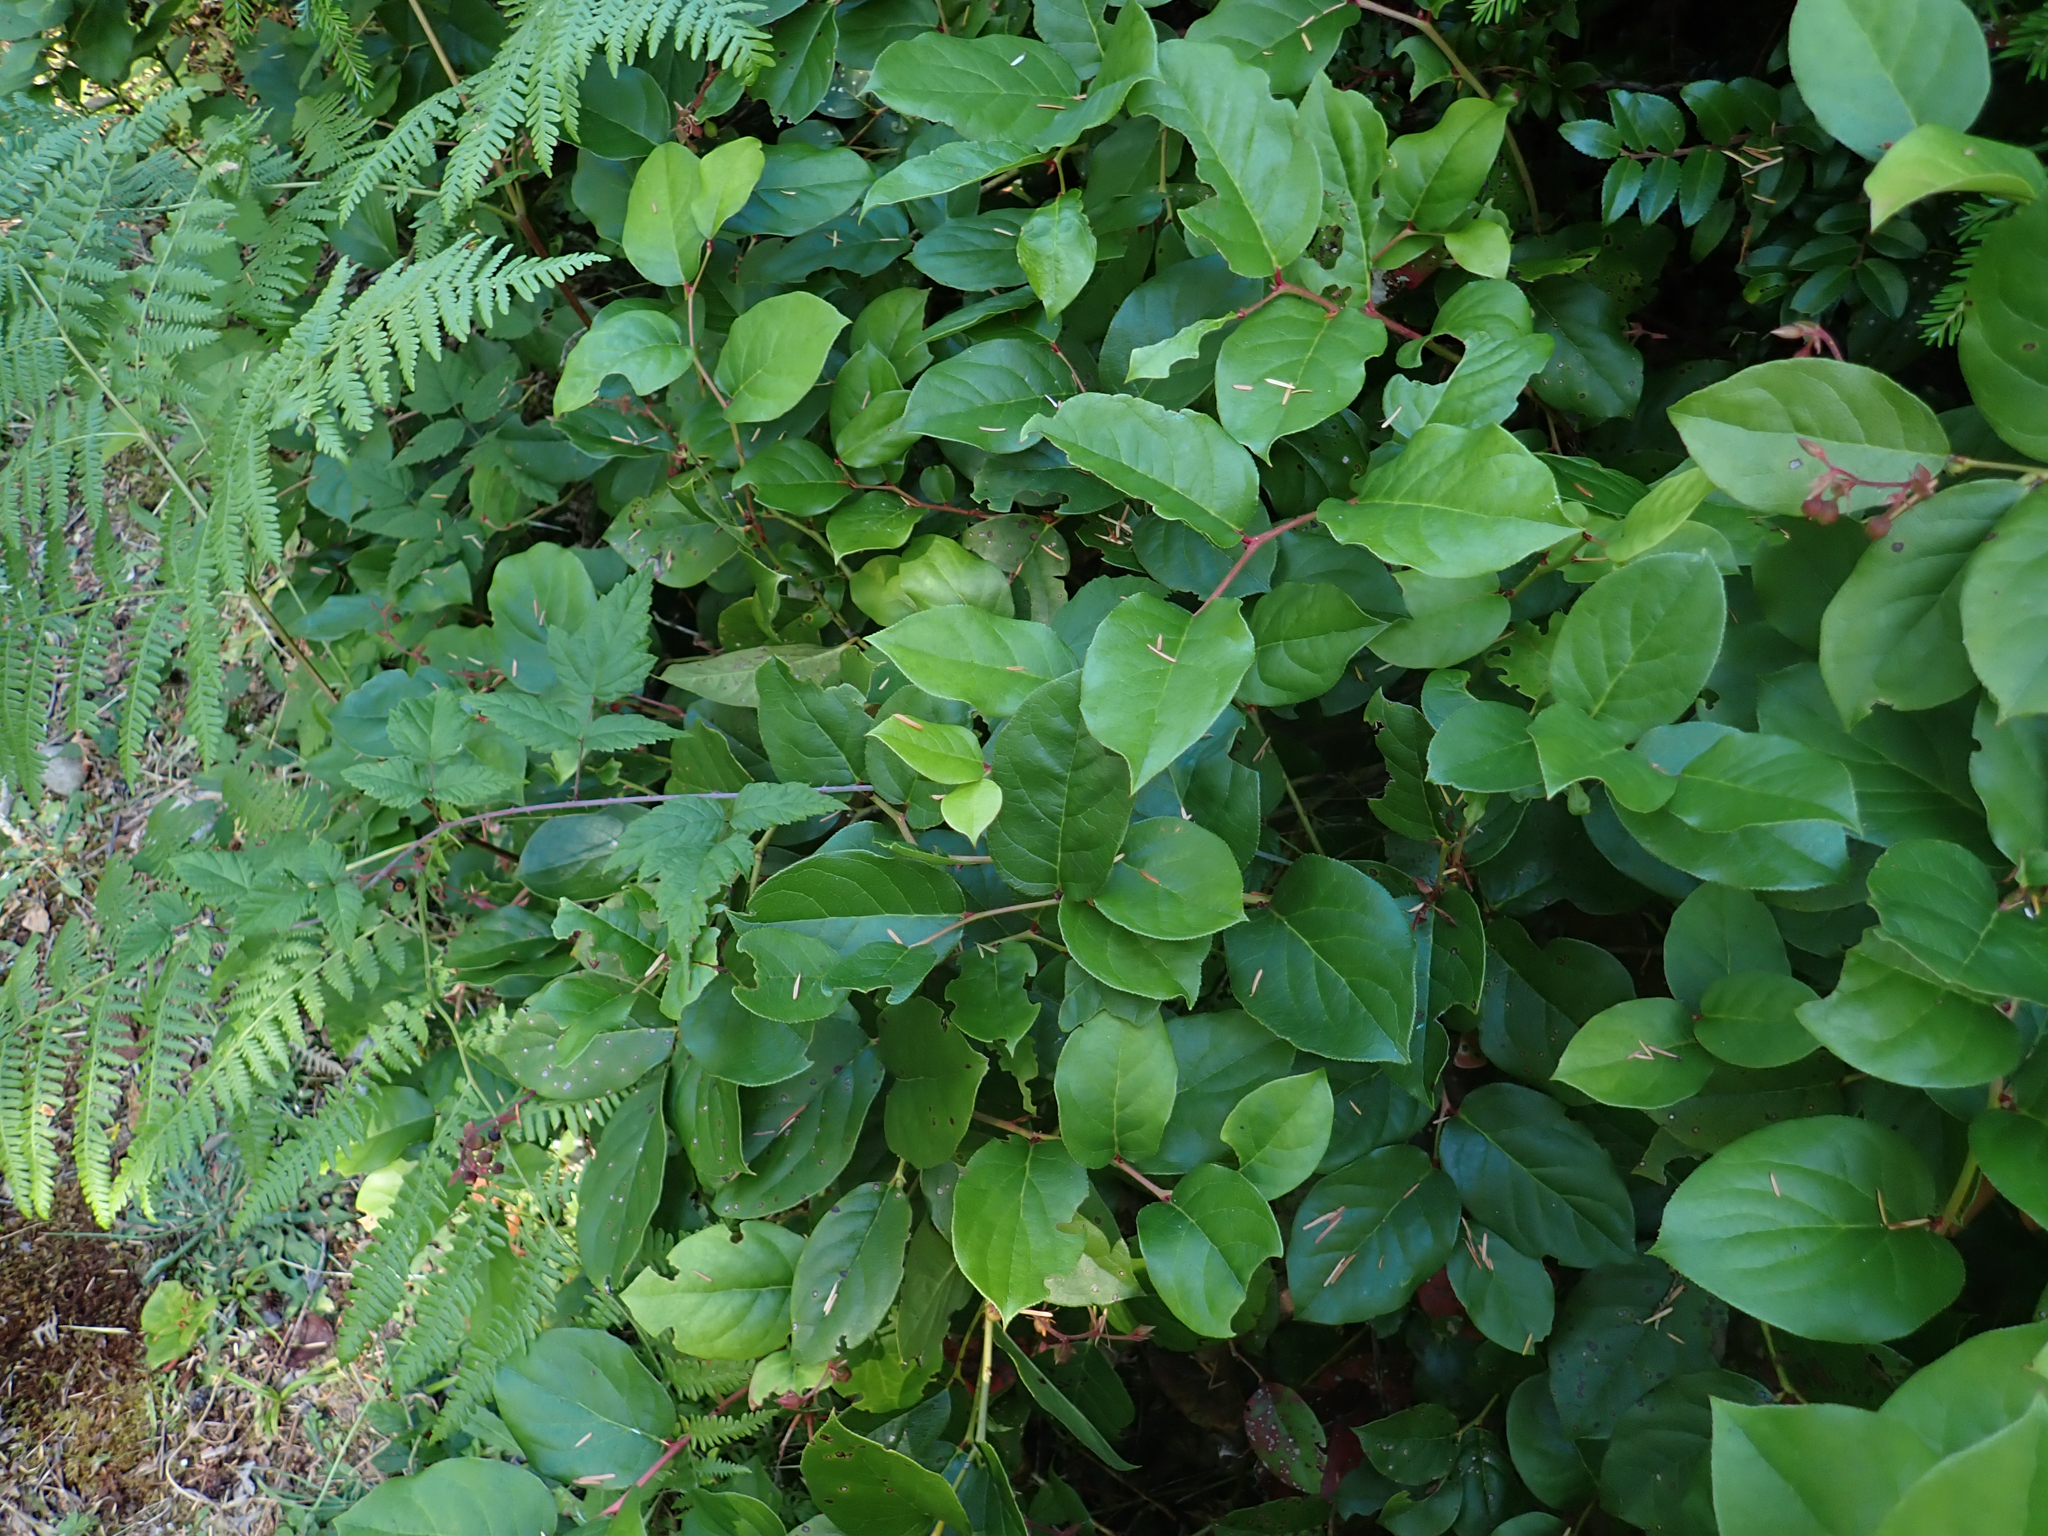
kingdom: Plantae
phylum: Tracheophyta
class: Magnoliopsida
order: Ericales
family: Ericaceae
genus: Gaultheria
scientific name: Gaultheria shallon
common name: Shallon
